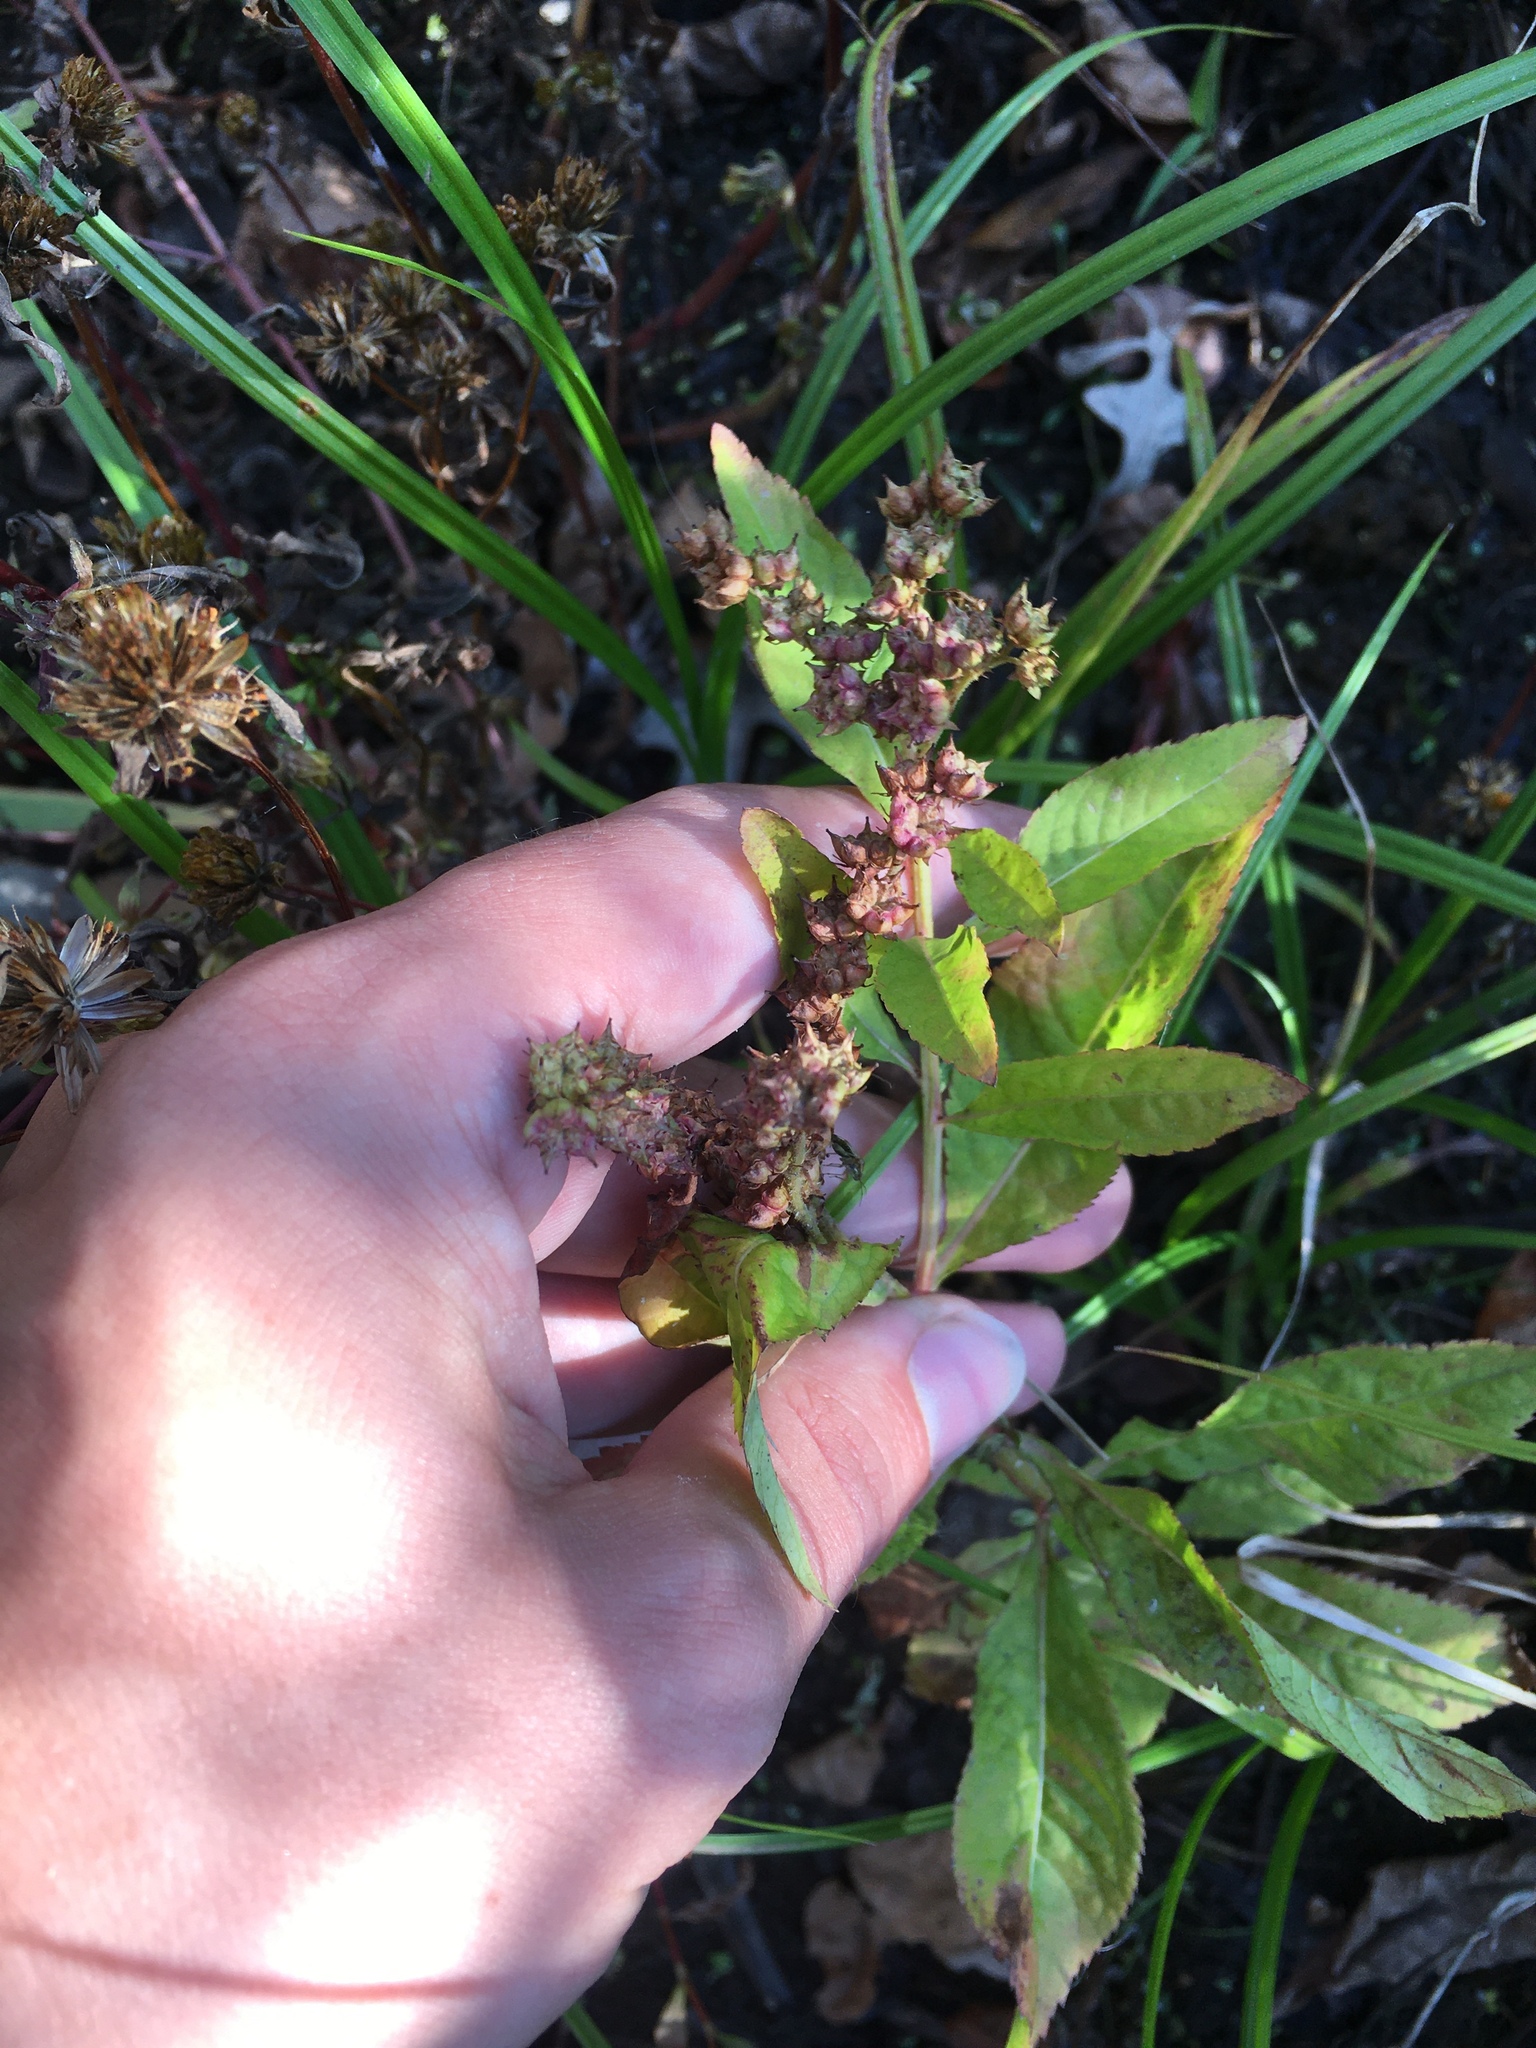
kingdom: Plantae
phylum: Tracheophyta
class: Magnoliopsida
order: Saxifragales
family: Penthoraceae
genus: Penthorum
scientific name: Penthorum sedoides
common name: Ditch stonecrop
